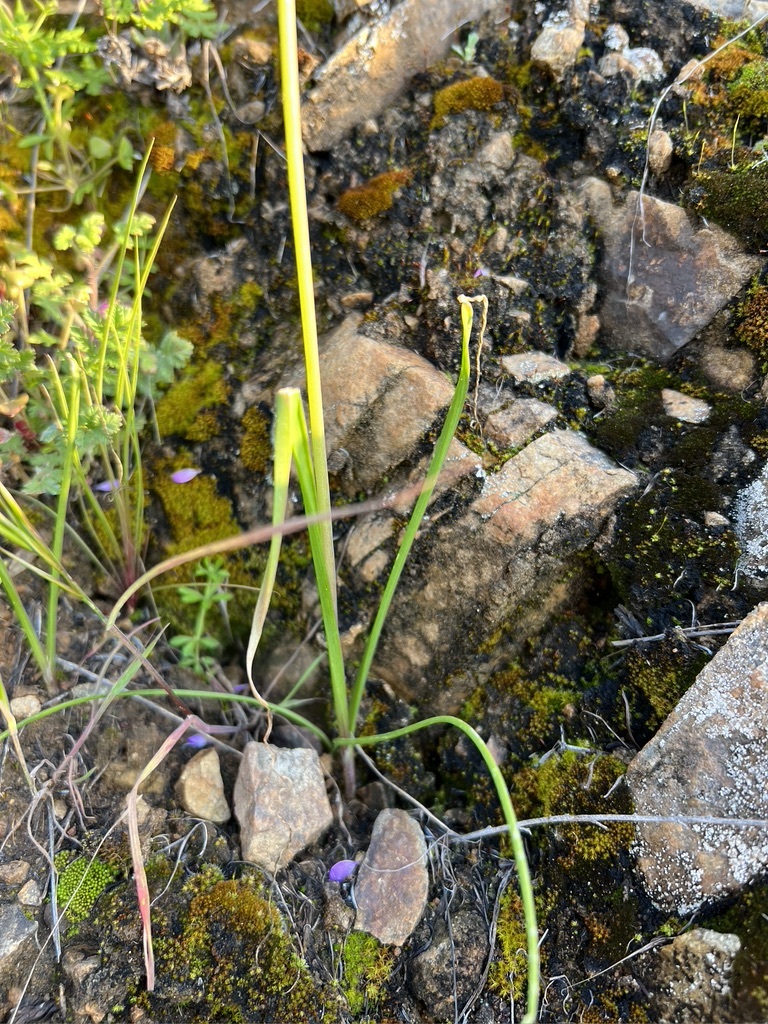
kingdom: Plantae
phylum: Tracheophyta
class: Liliopsida
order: Asparagales
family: Amaryllidaceae
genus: Allium
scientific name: Allium praecox
